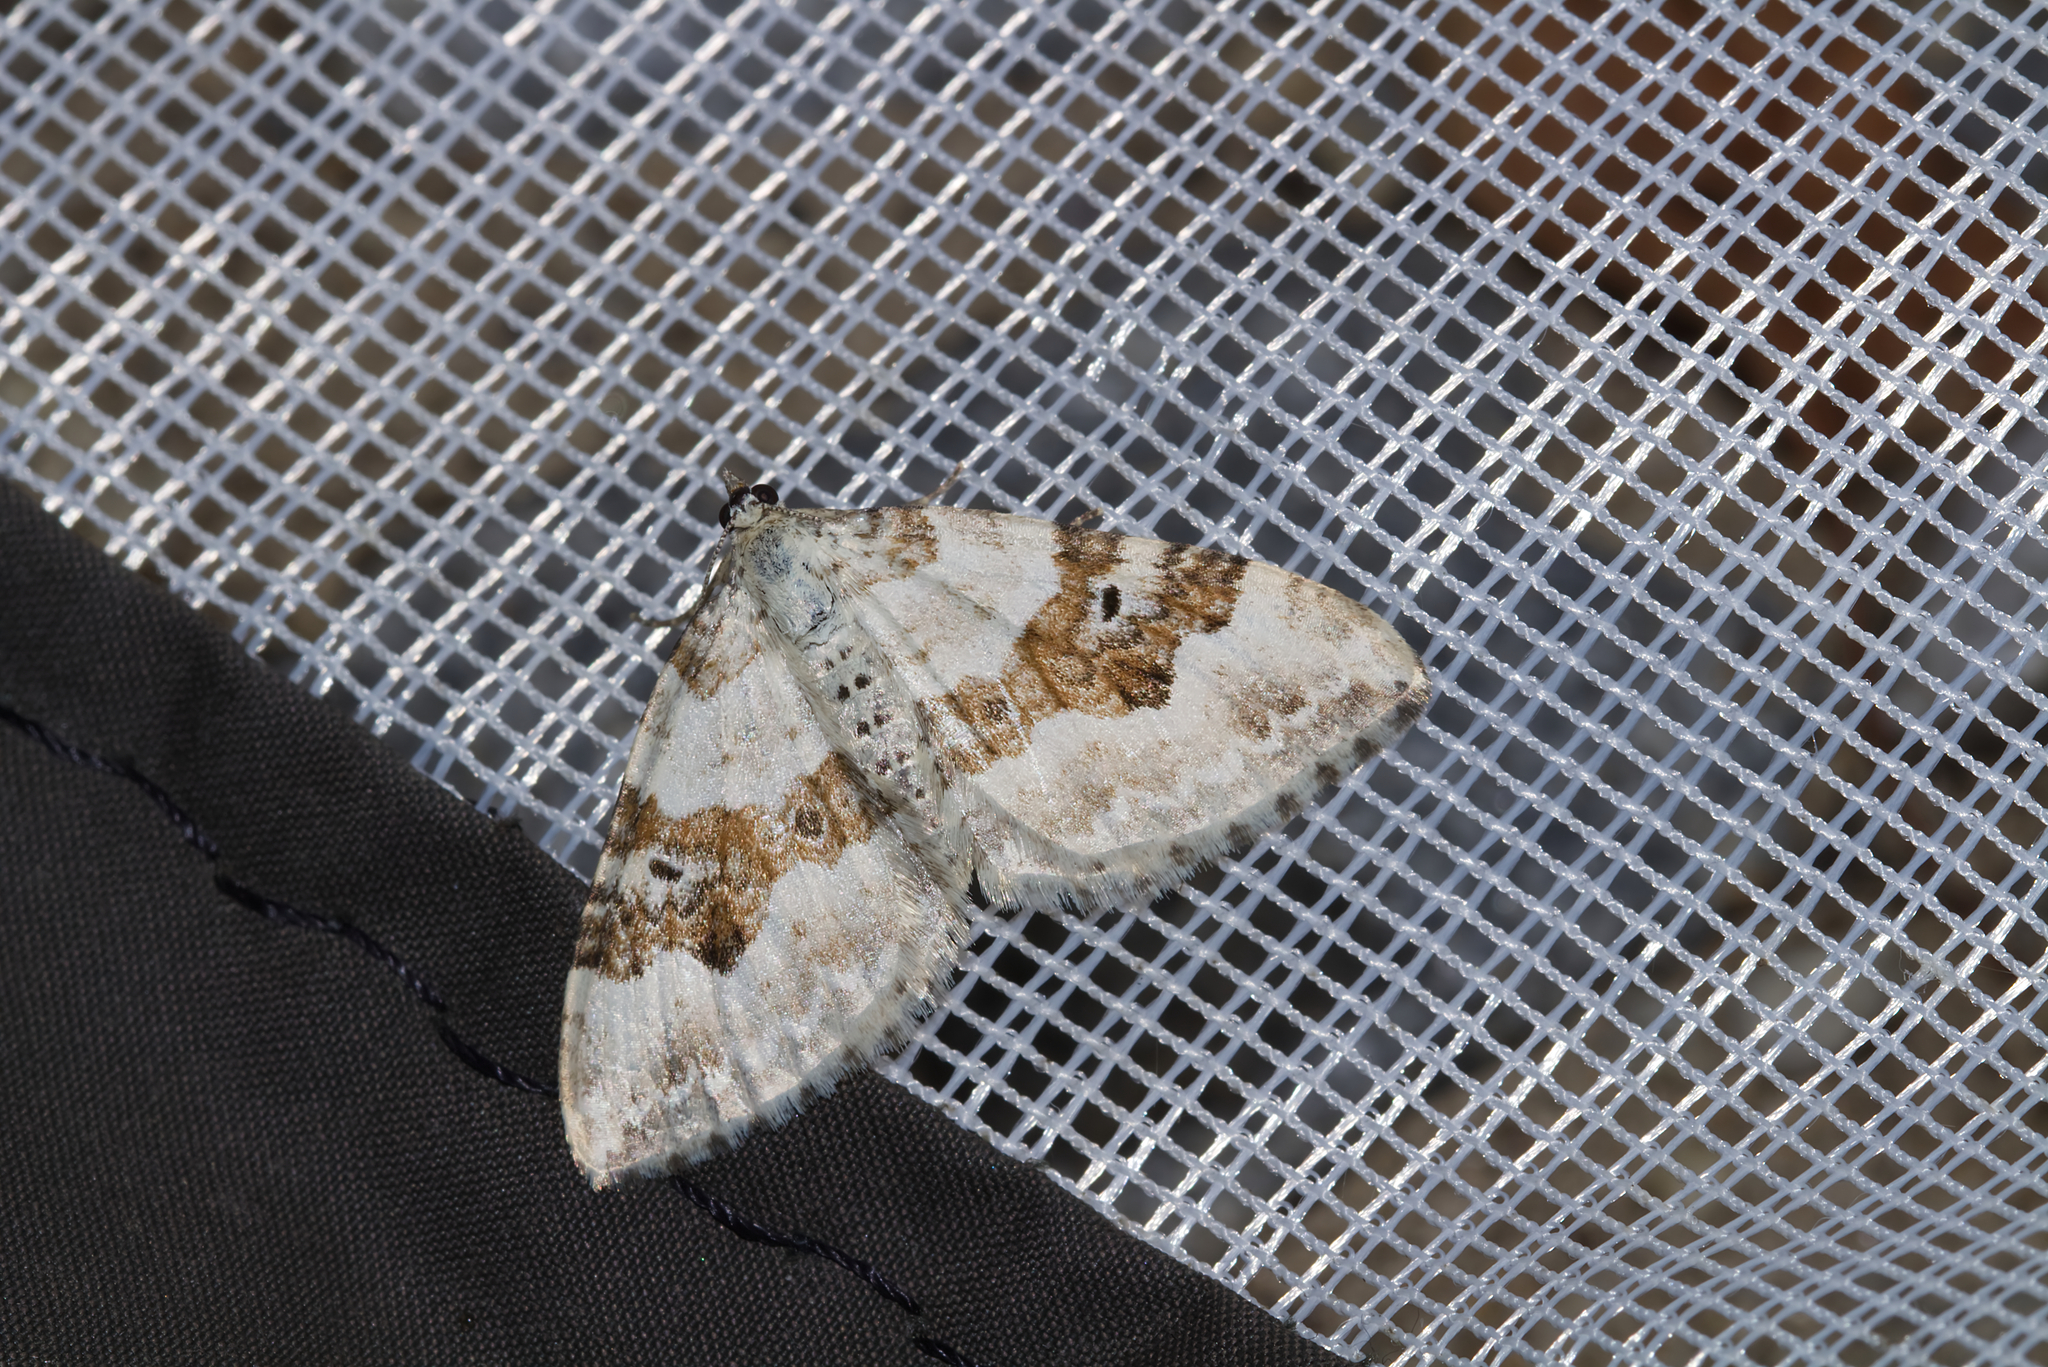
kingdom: Animalia
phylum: Arthropoda
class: Insecta
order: Lepidoptera
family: Geometridae
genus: Xanthorhoe
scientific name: Xanthorhoe montanata
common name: Silver-ground carpet
